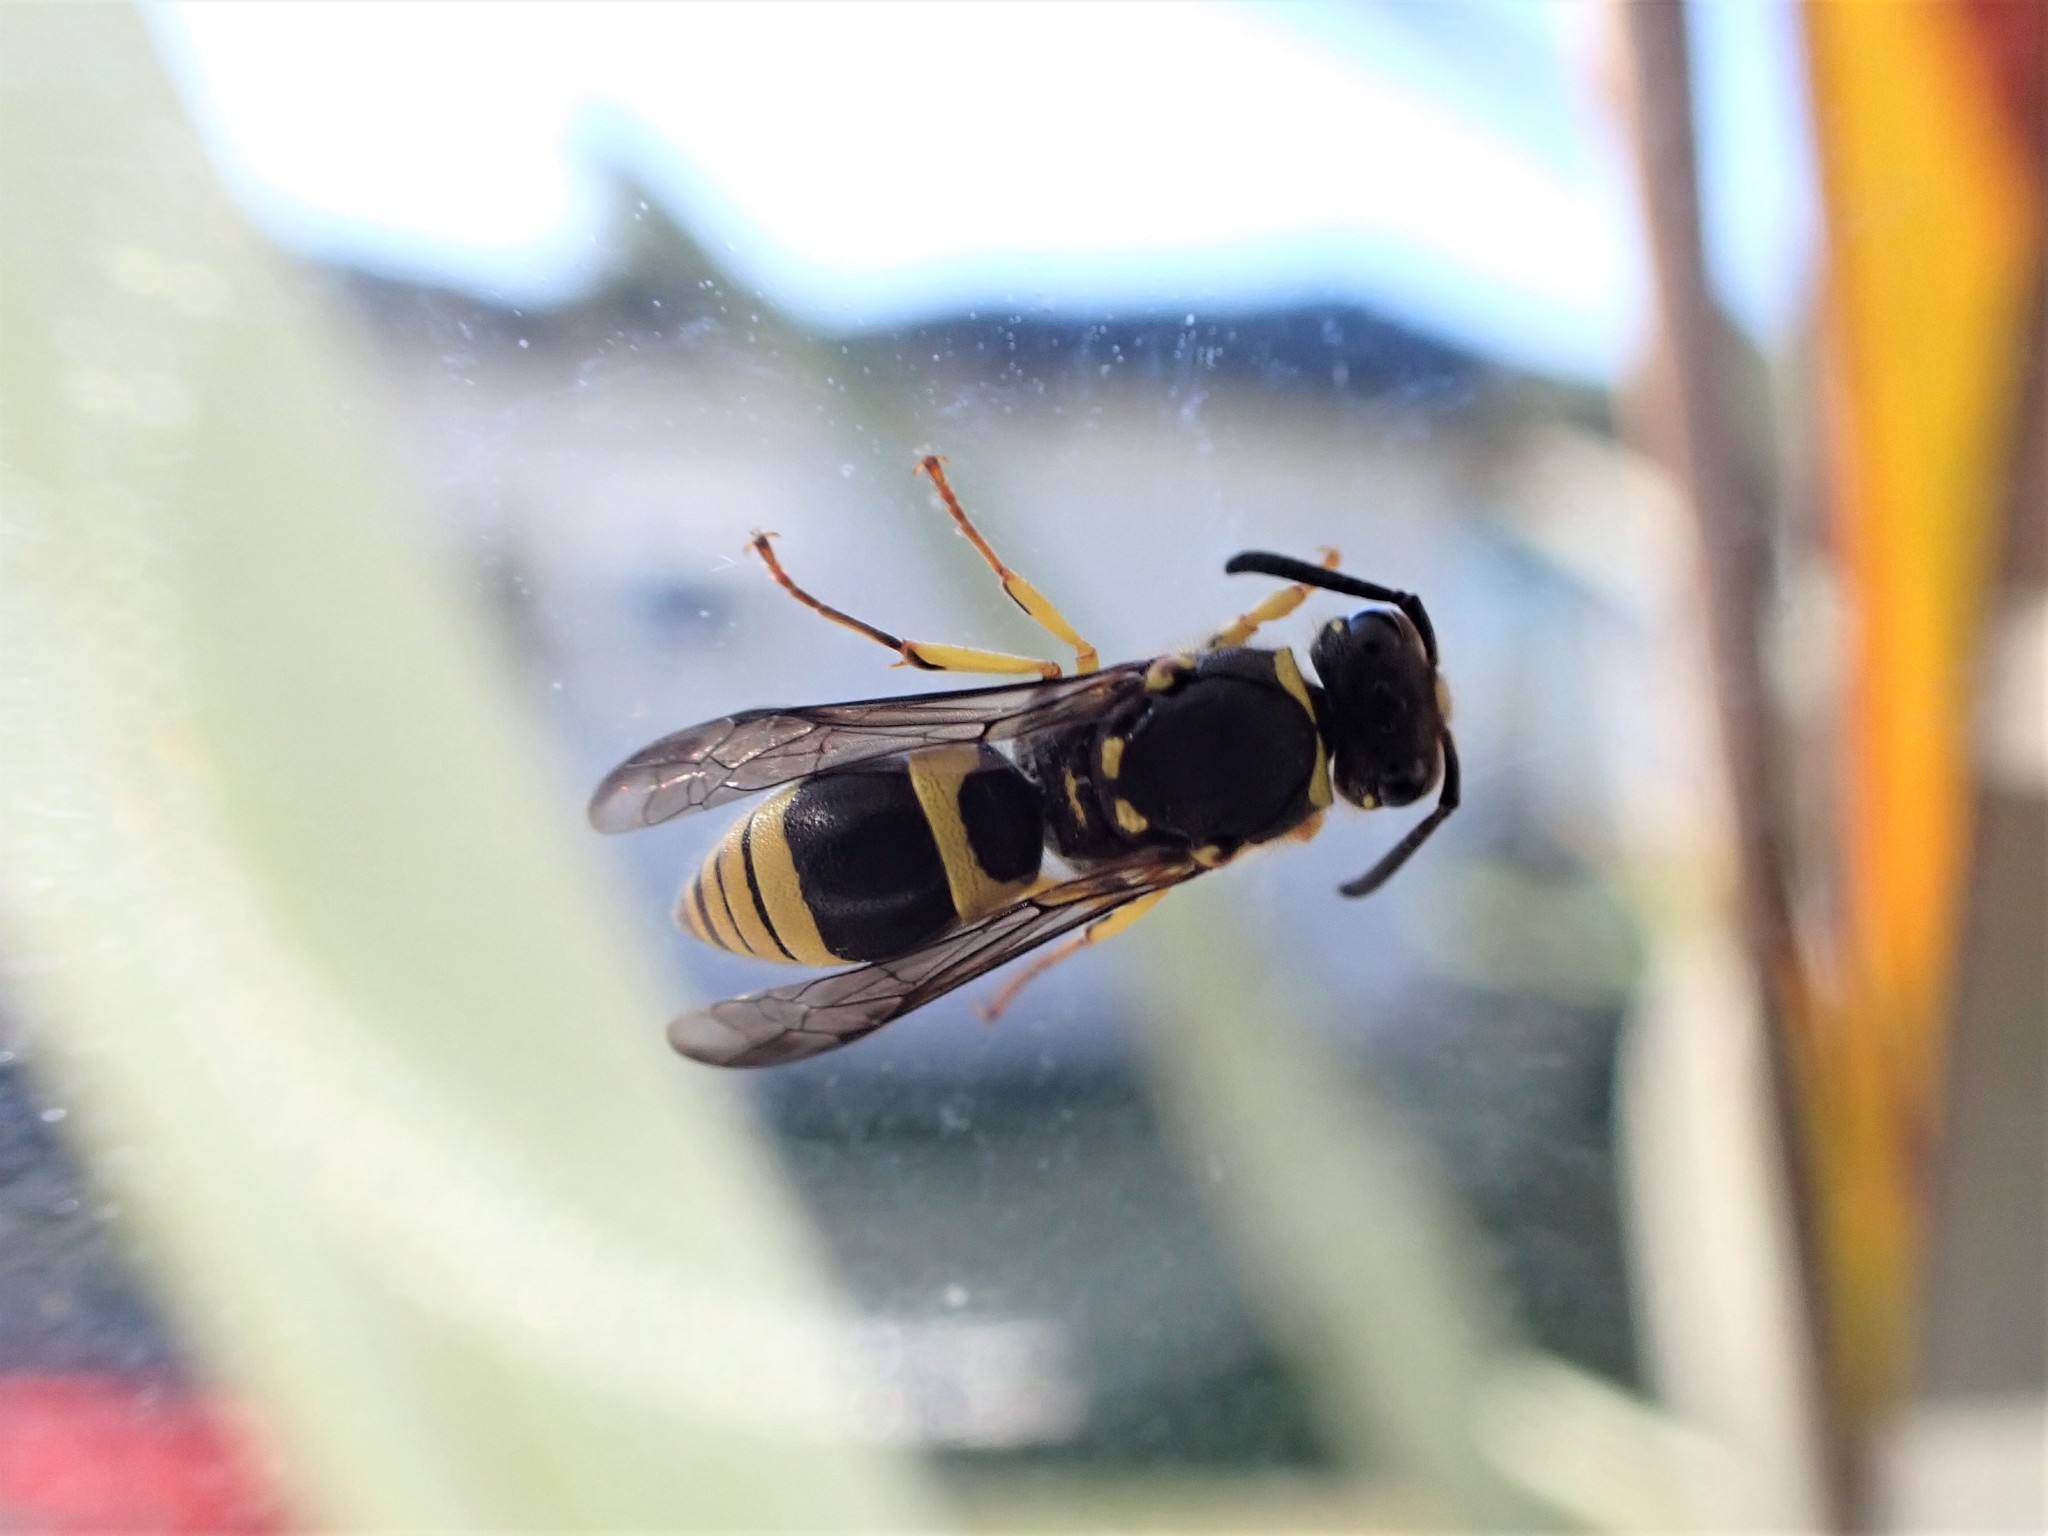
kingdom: Animalia
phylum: Arthropoda
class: Insecta
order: Hymenoptera
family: Vespidae
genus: Ancistrocerus
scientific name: Ancistrocerus gazella
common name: European tube wasp
